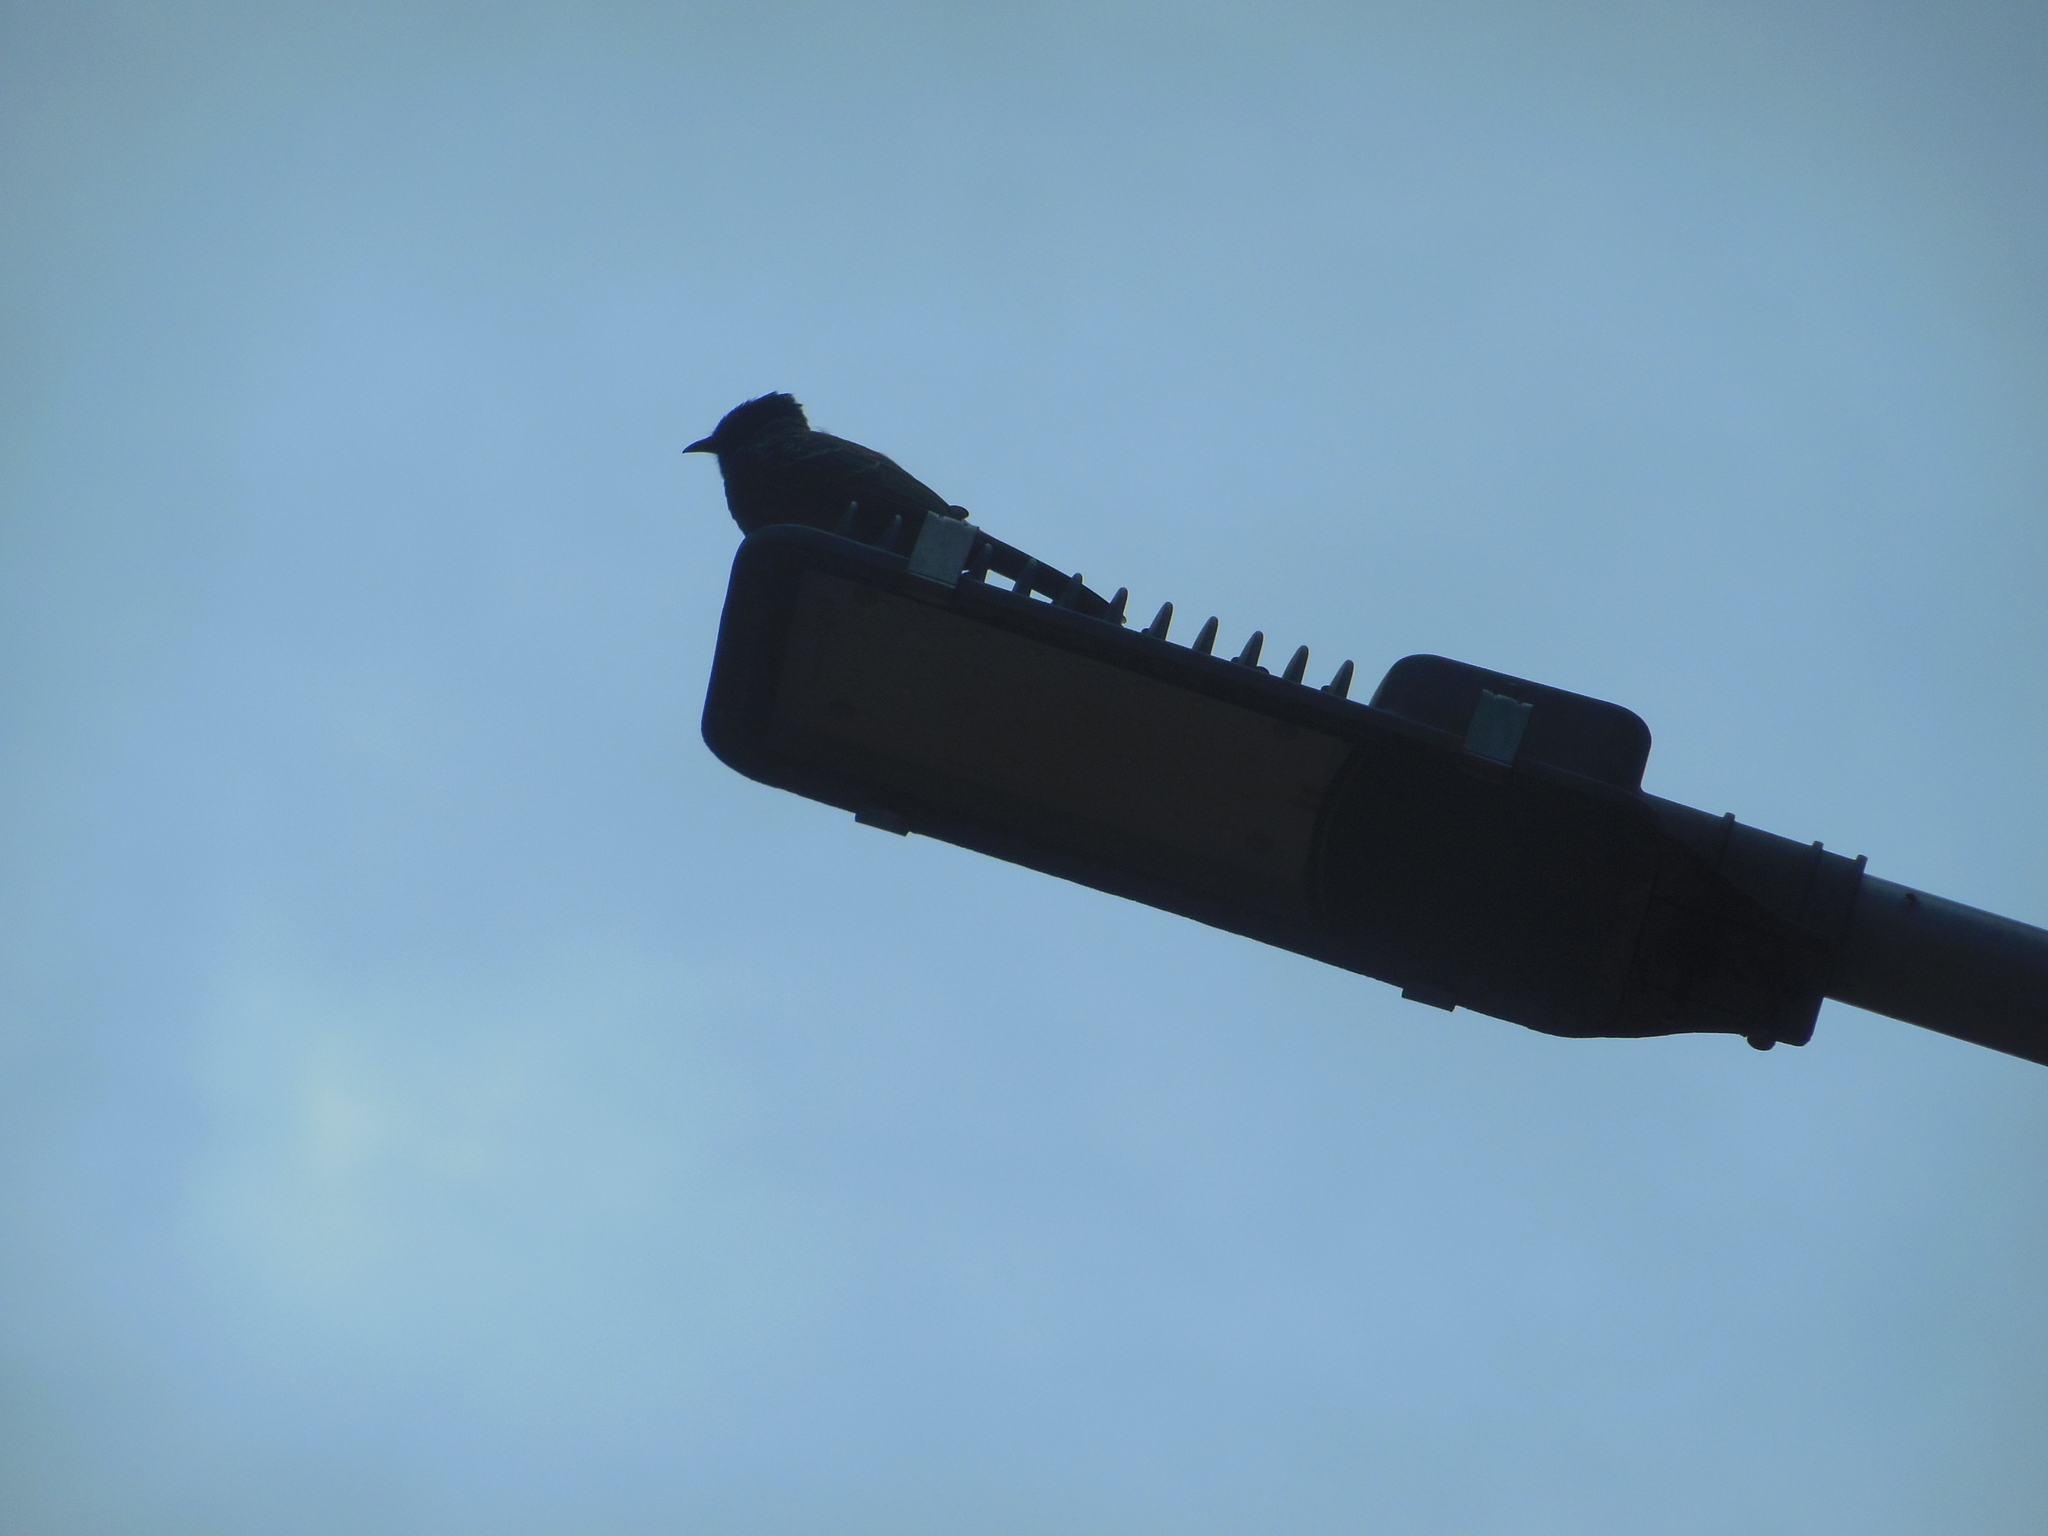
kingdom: Animalia
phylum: Chordata
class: Aves
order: Passeriformes
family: Pycnonotidae
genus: Pycnonotus
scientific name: Pycnonotus cafer
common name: Red-vented bulbul
